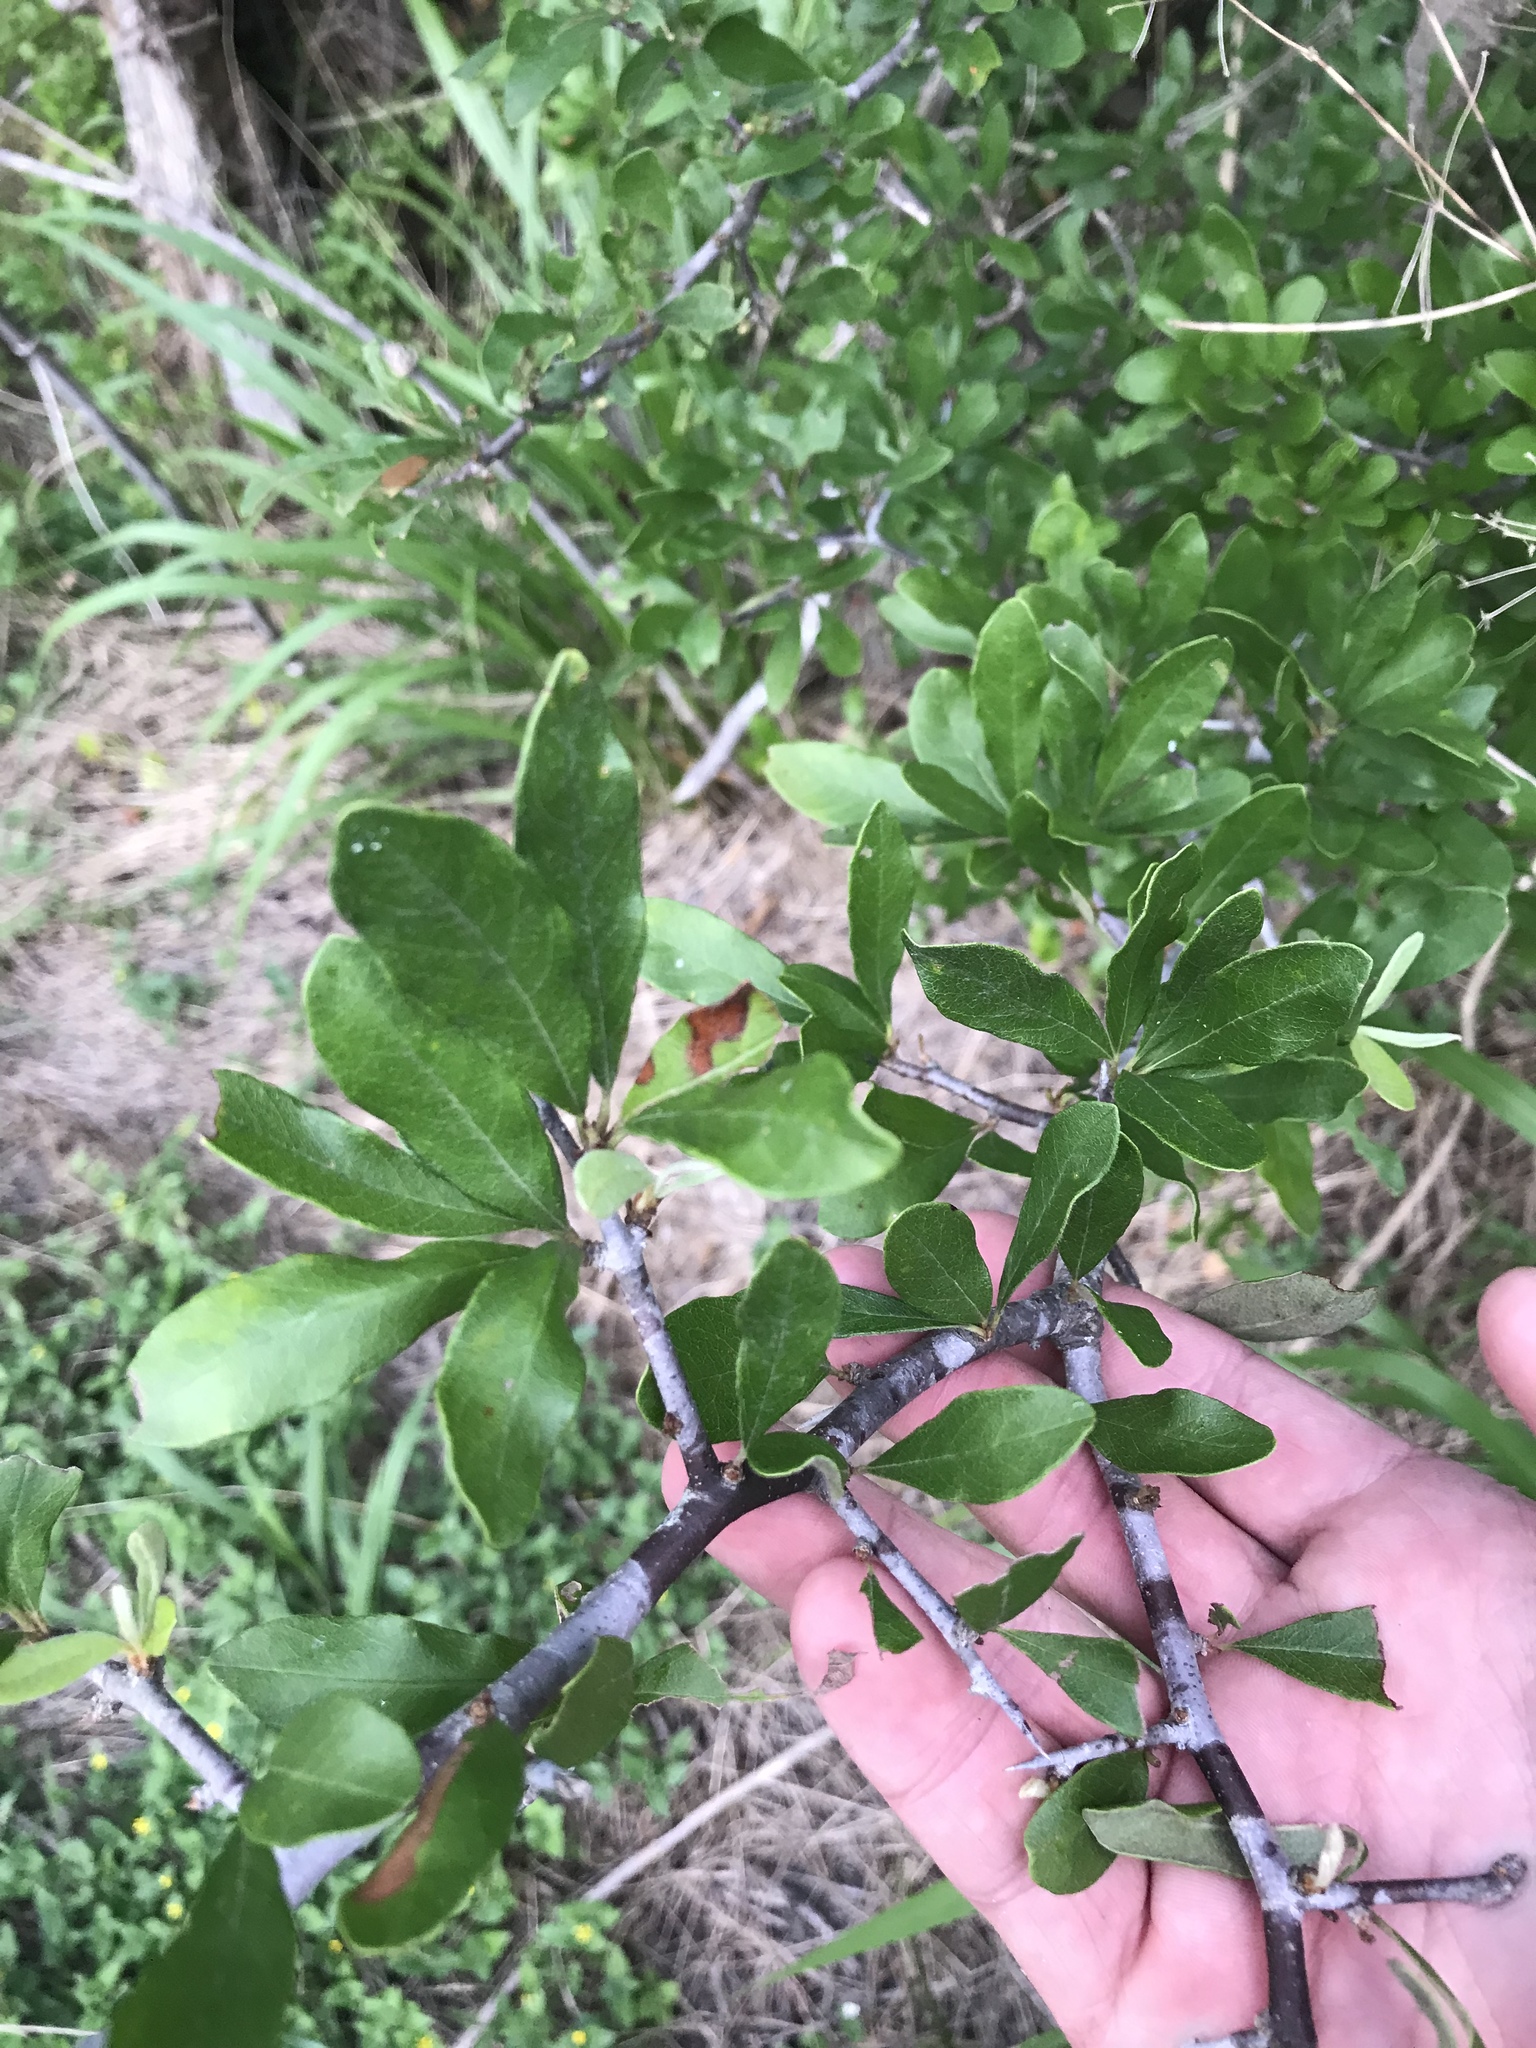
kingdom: Plantae
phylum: Tracheophyta
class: Magnoliopsida
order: Ericales
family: Sapotaceae
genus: Sideroxylon
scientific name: Sideroxylon lanuginosum
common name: Chittamwood
